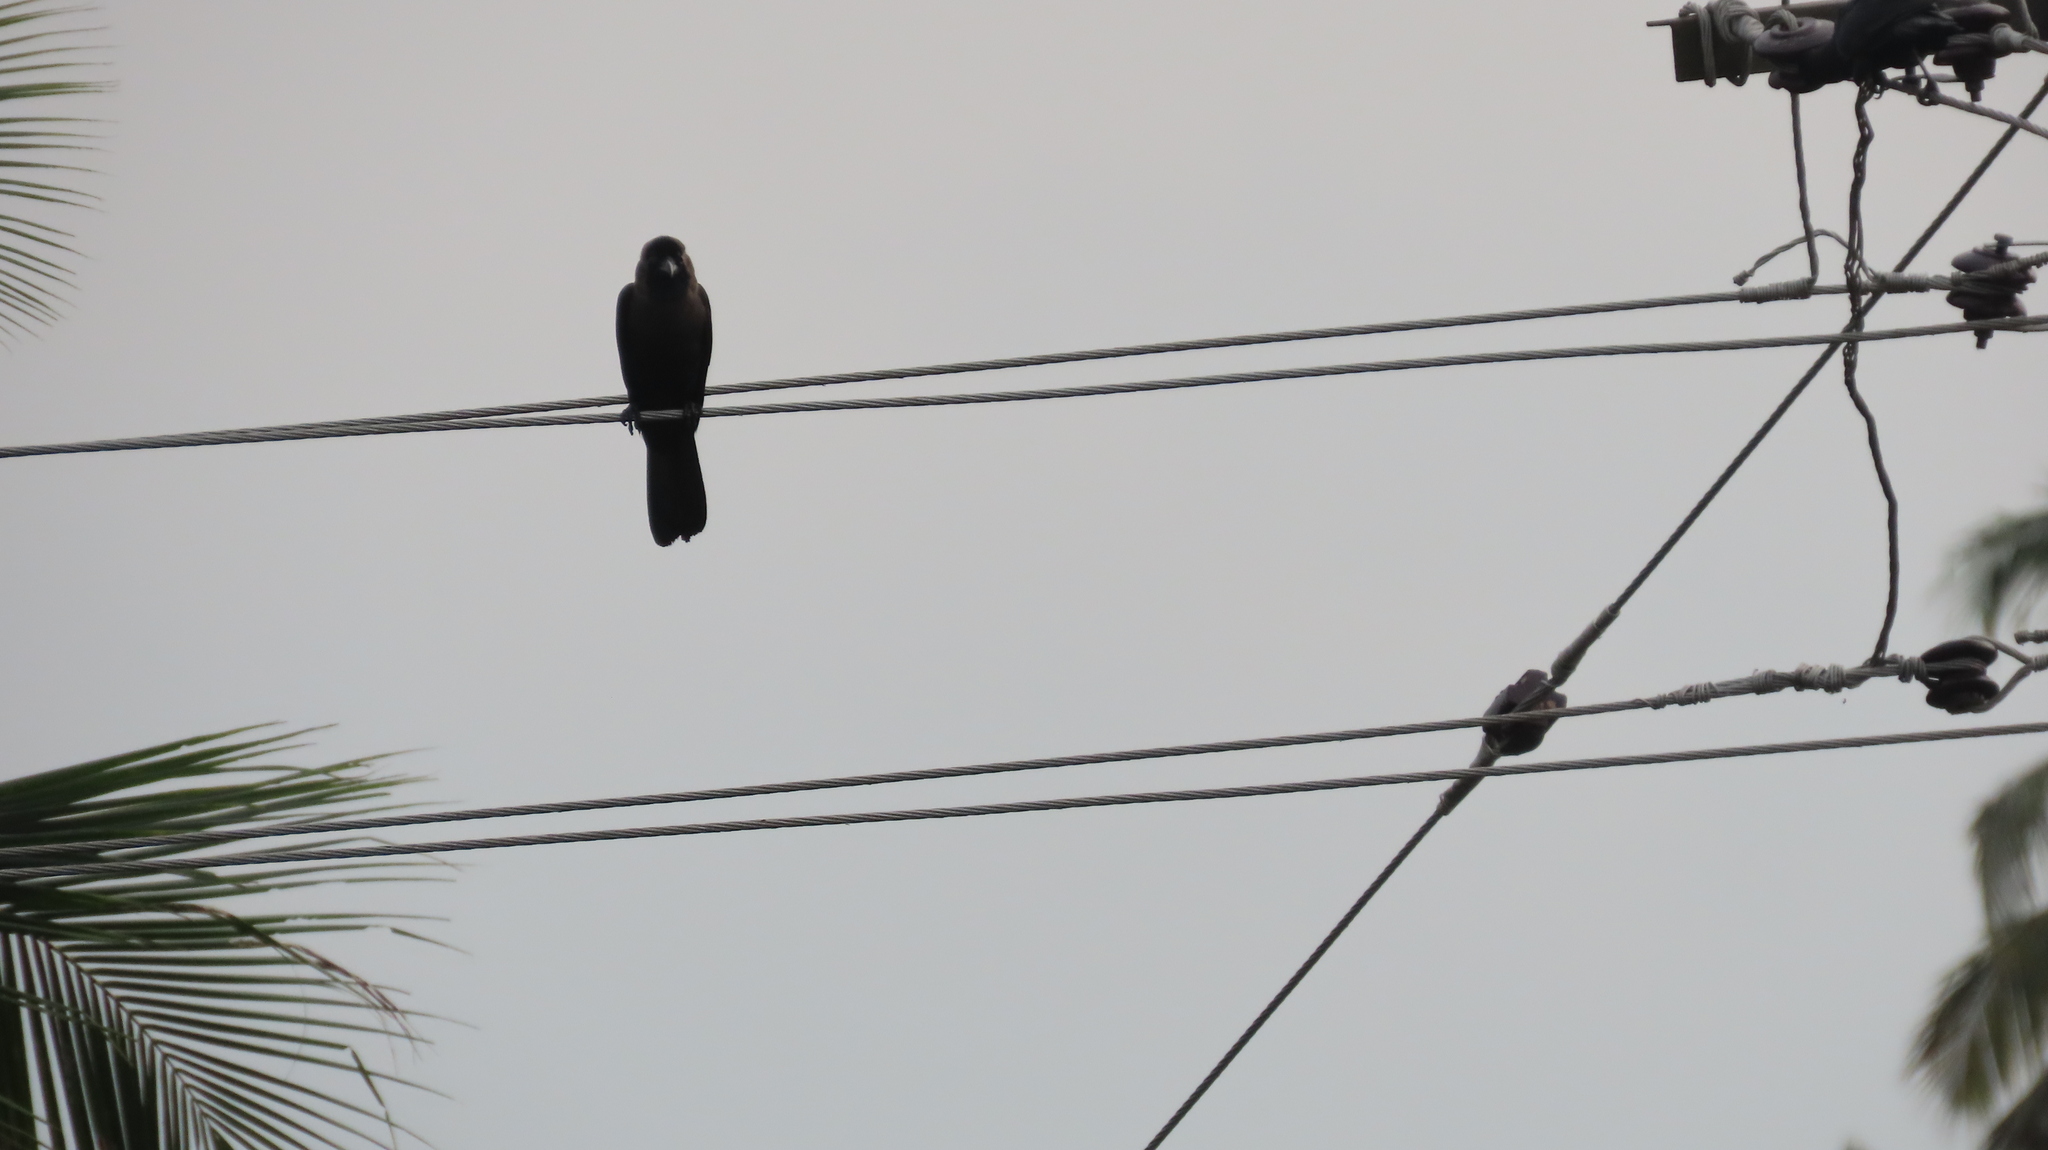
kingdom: Animalia
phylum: Chordata
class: Aves
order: Passeriformes
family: Corvidae
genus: Corvus
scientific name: Corvus splendens
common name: House crow
